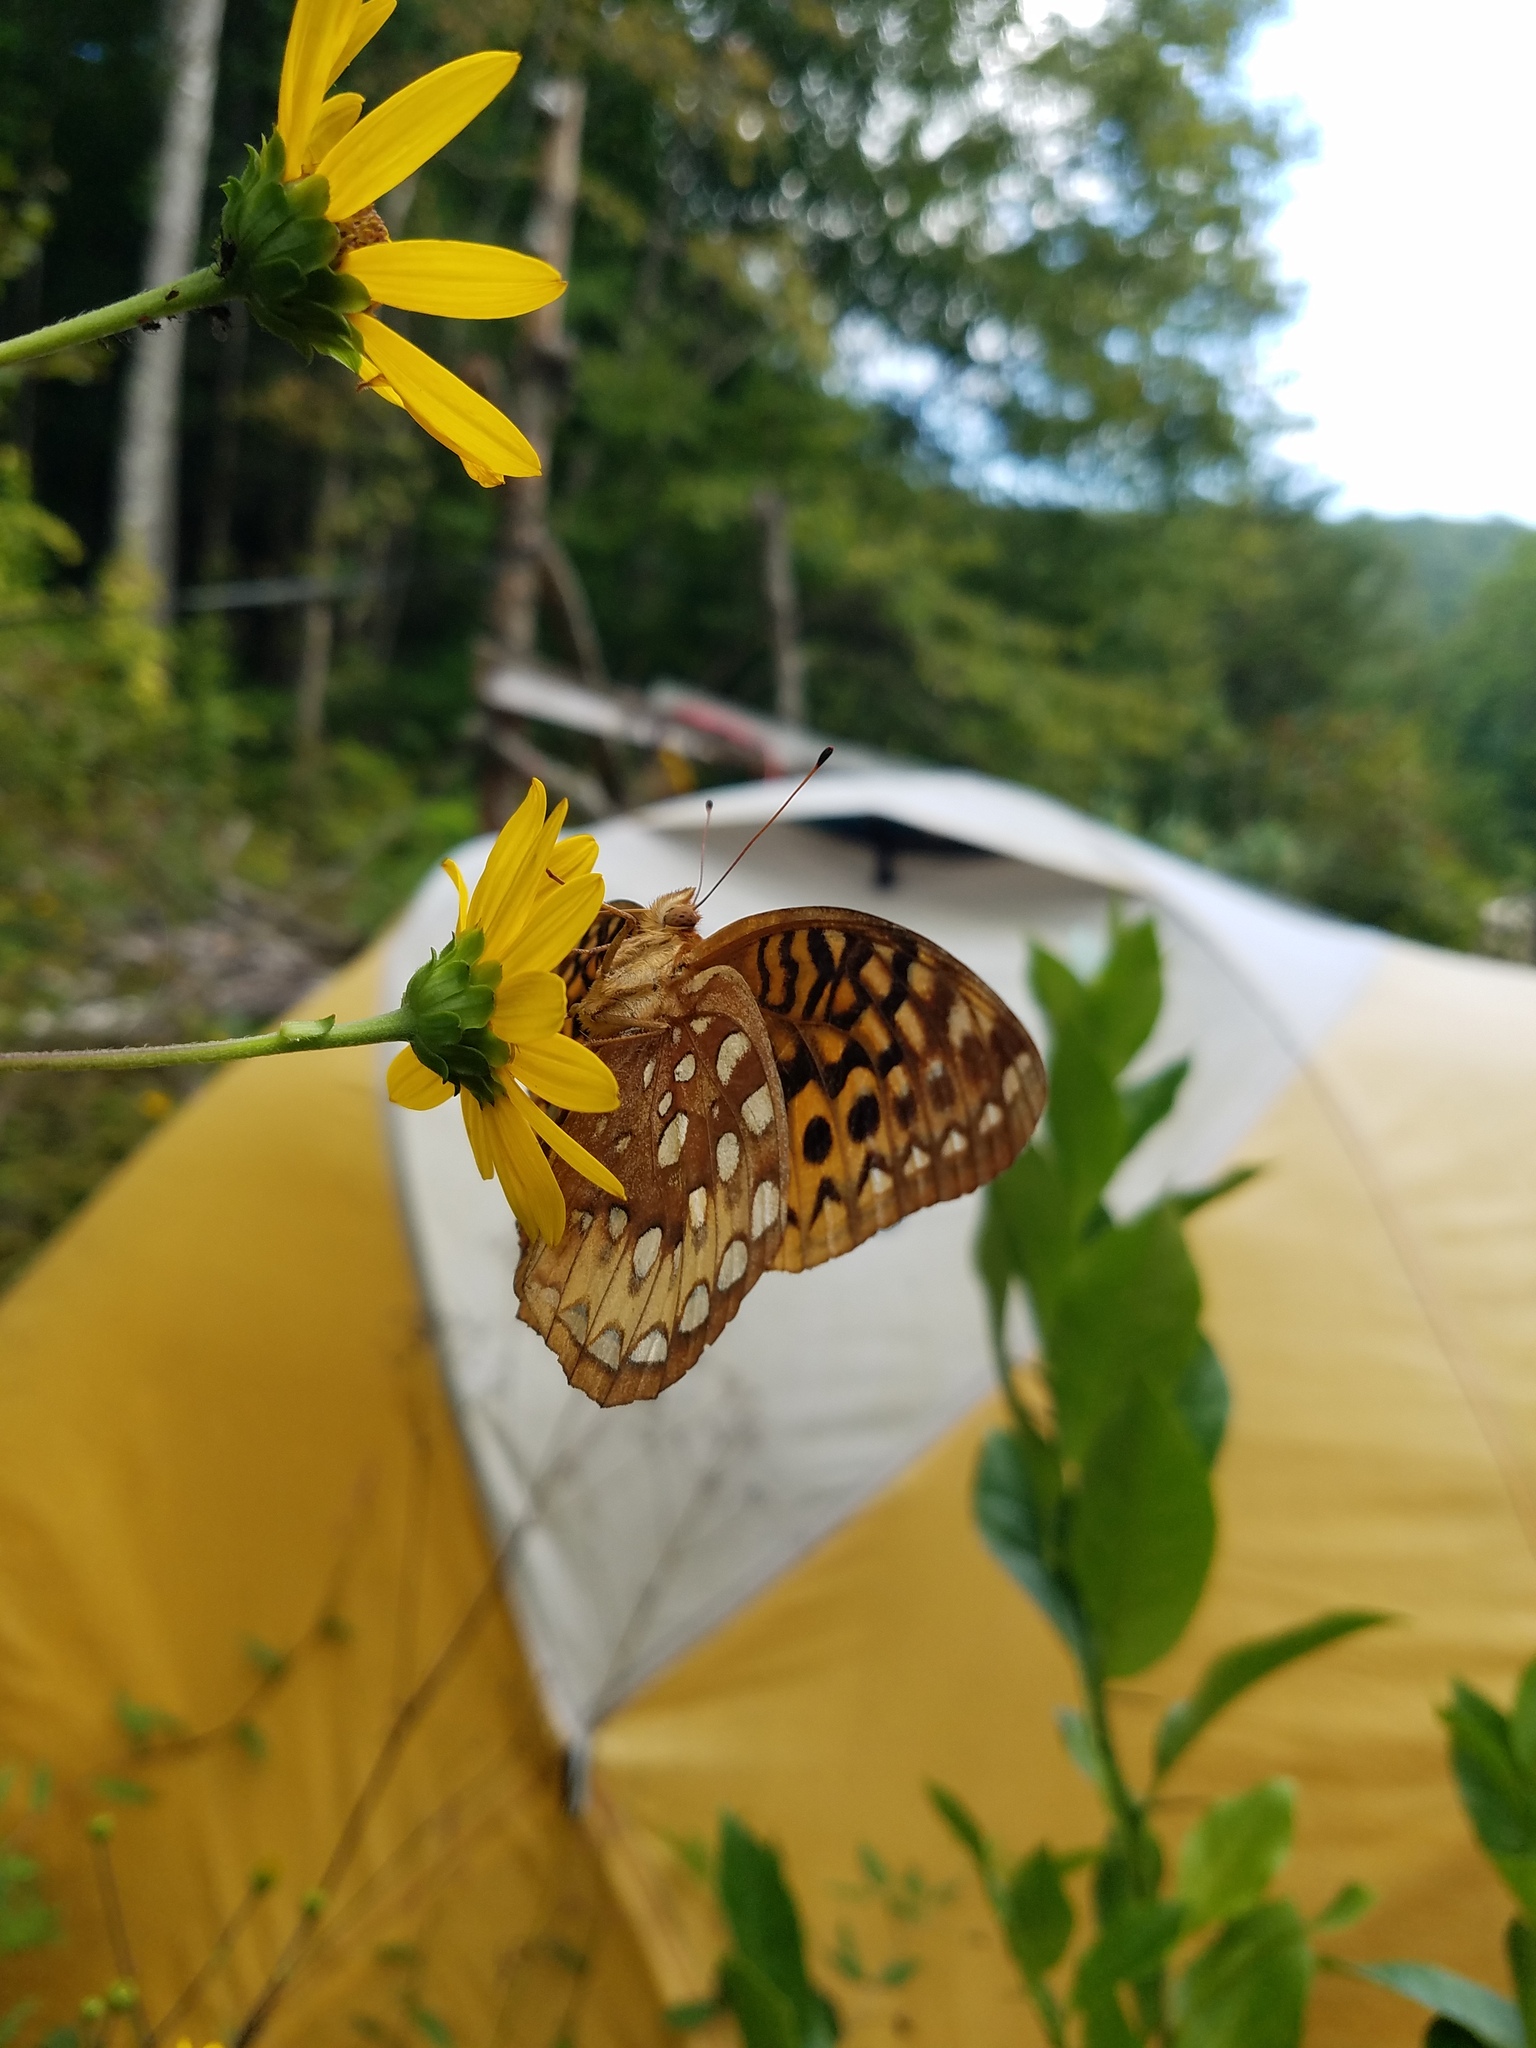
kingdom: Animalia
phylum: Arthropoda
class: Insecta
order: Lepidoptera
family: Nymphalidae
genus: Speyeria
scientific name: Speyeria cybele
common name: Great spangled fritillary
